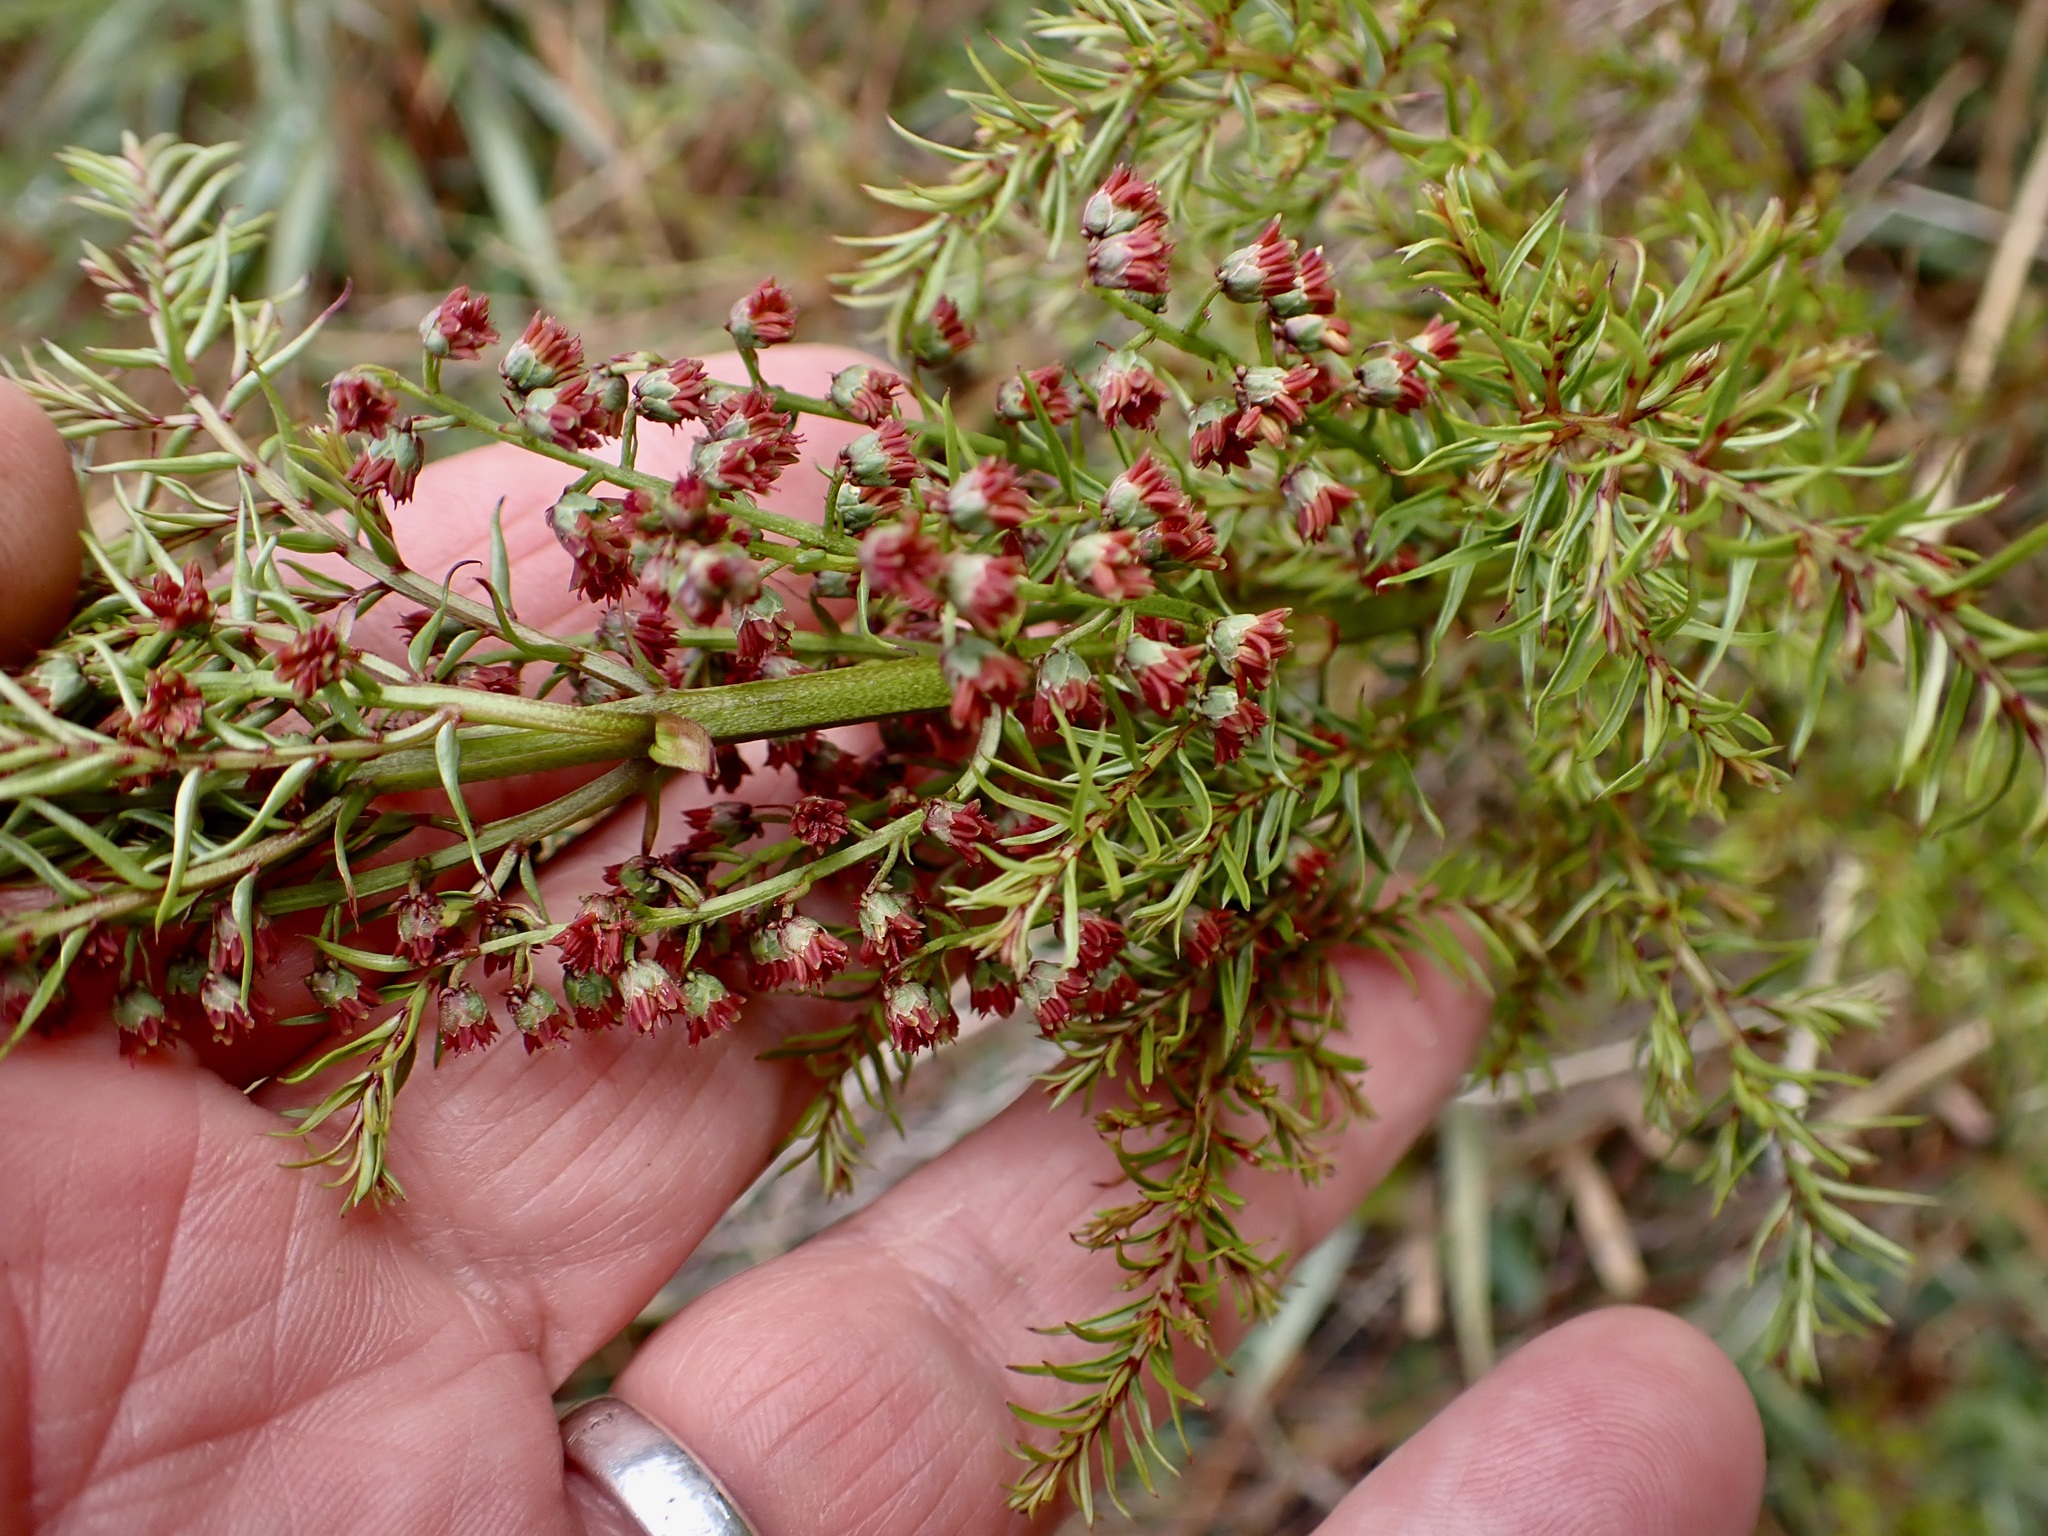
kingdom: Plantae
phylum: Tracheophyta
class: Magnoliopsida
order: Cucurbitales
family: Coriariaceae
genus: Coriaria
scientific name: Coriaria angustissima
